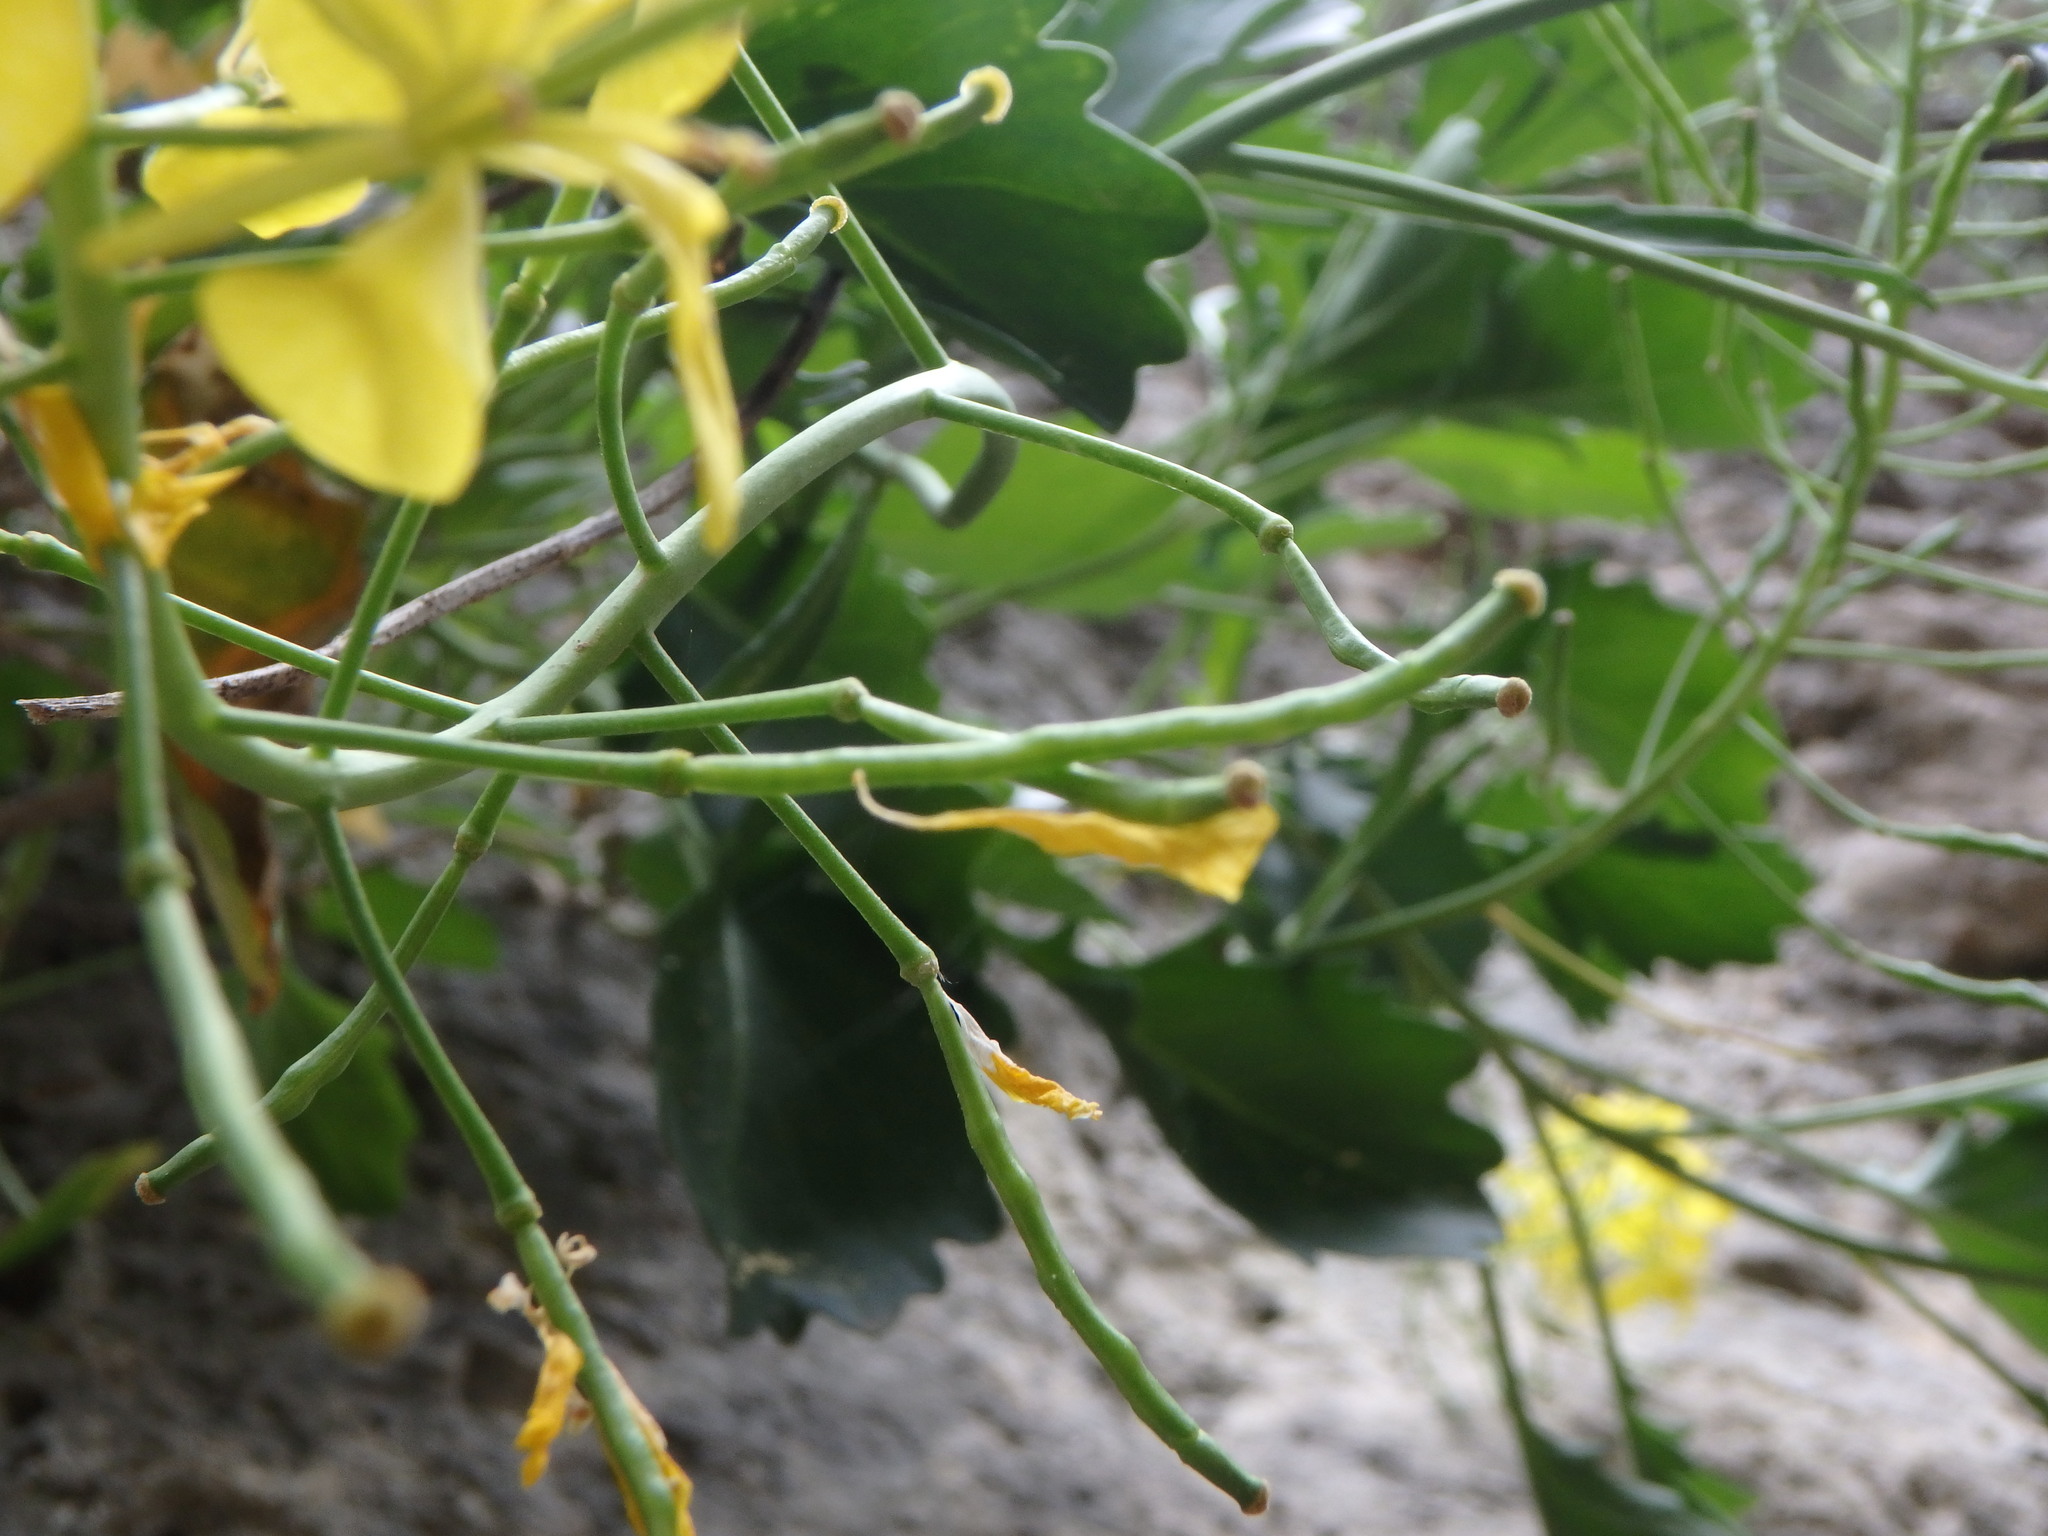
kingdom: Plantae
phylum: Tracheophyta
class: Magnoliopsida
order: Brassicales
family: Brassicaceae
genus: Brassica
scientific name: Brassica balearica
